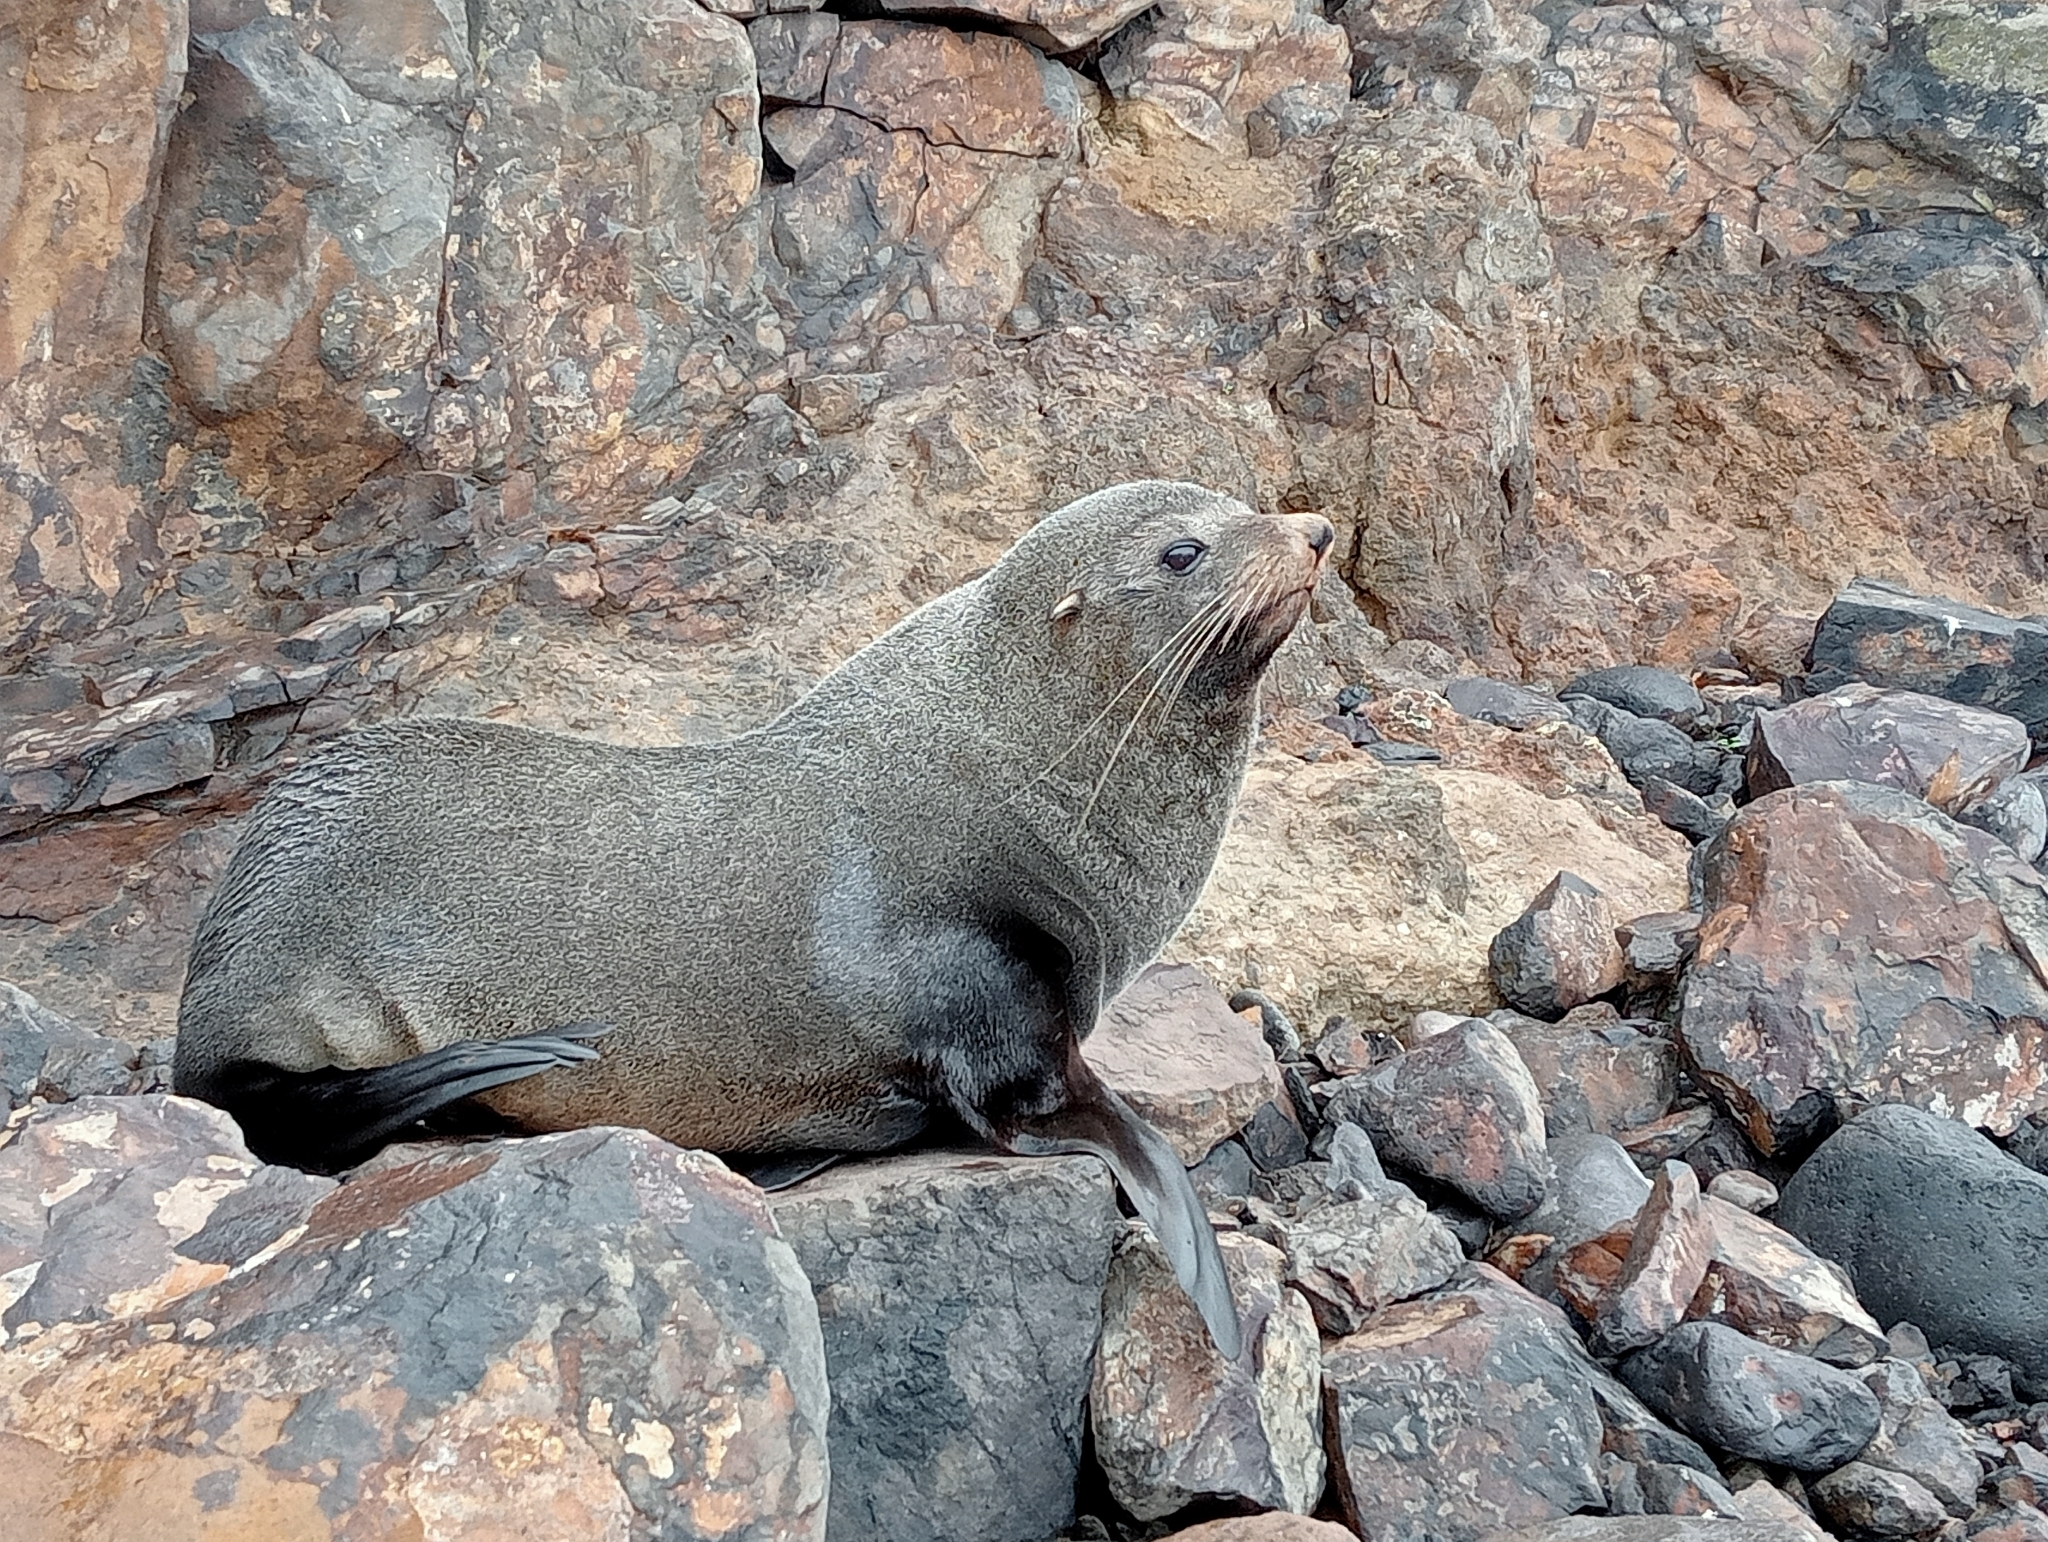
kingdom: Animalia
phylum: Chordata
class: Mammalia
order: Carnivora
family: Otariidae
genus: Arctocephalus
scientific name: Arctocephalus forsteri
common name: New zealand fur seal
